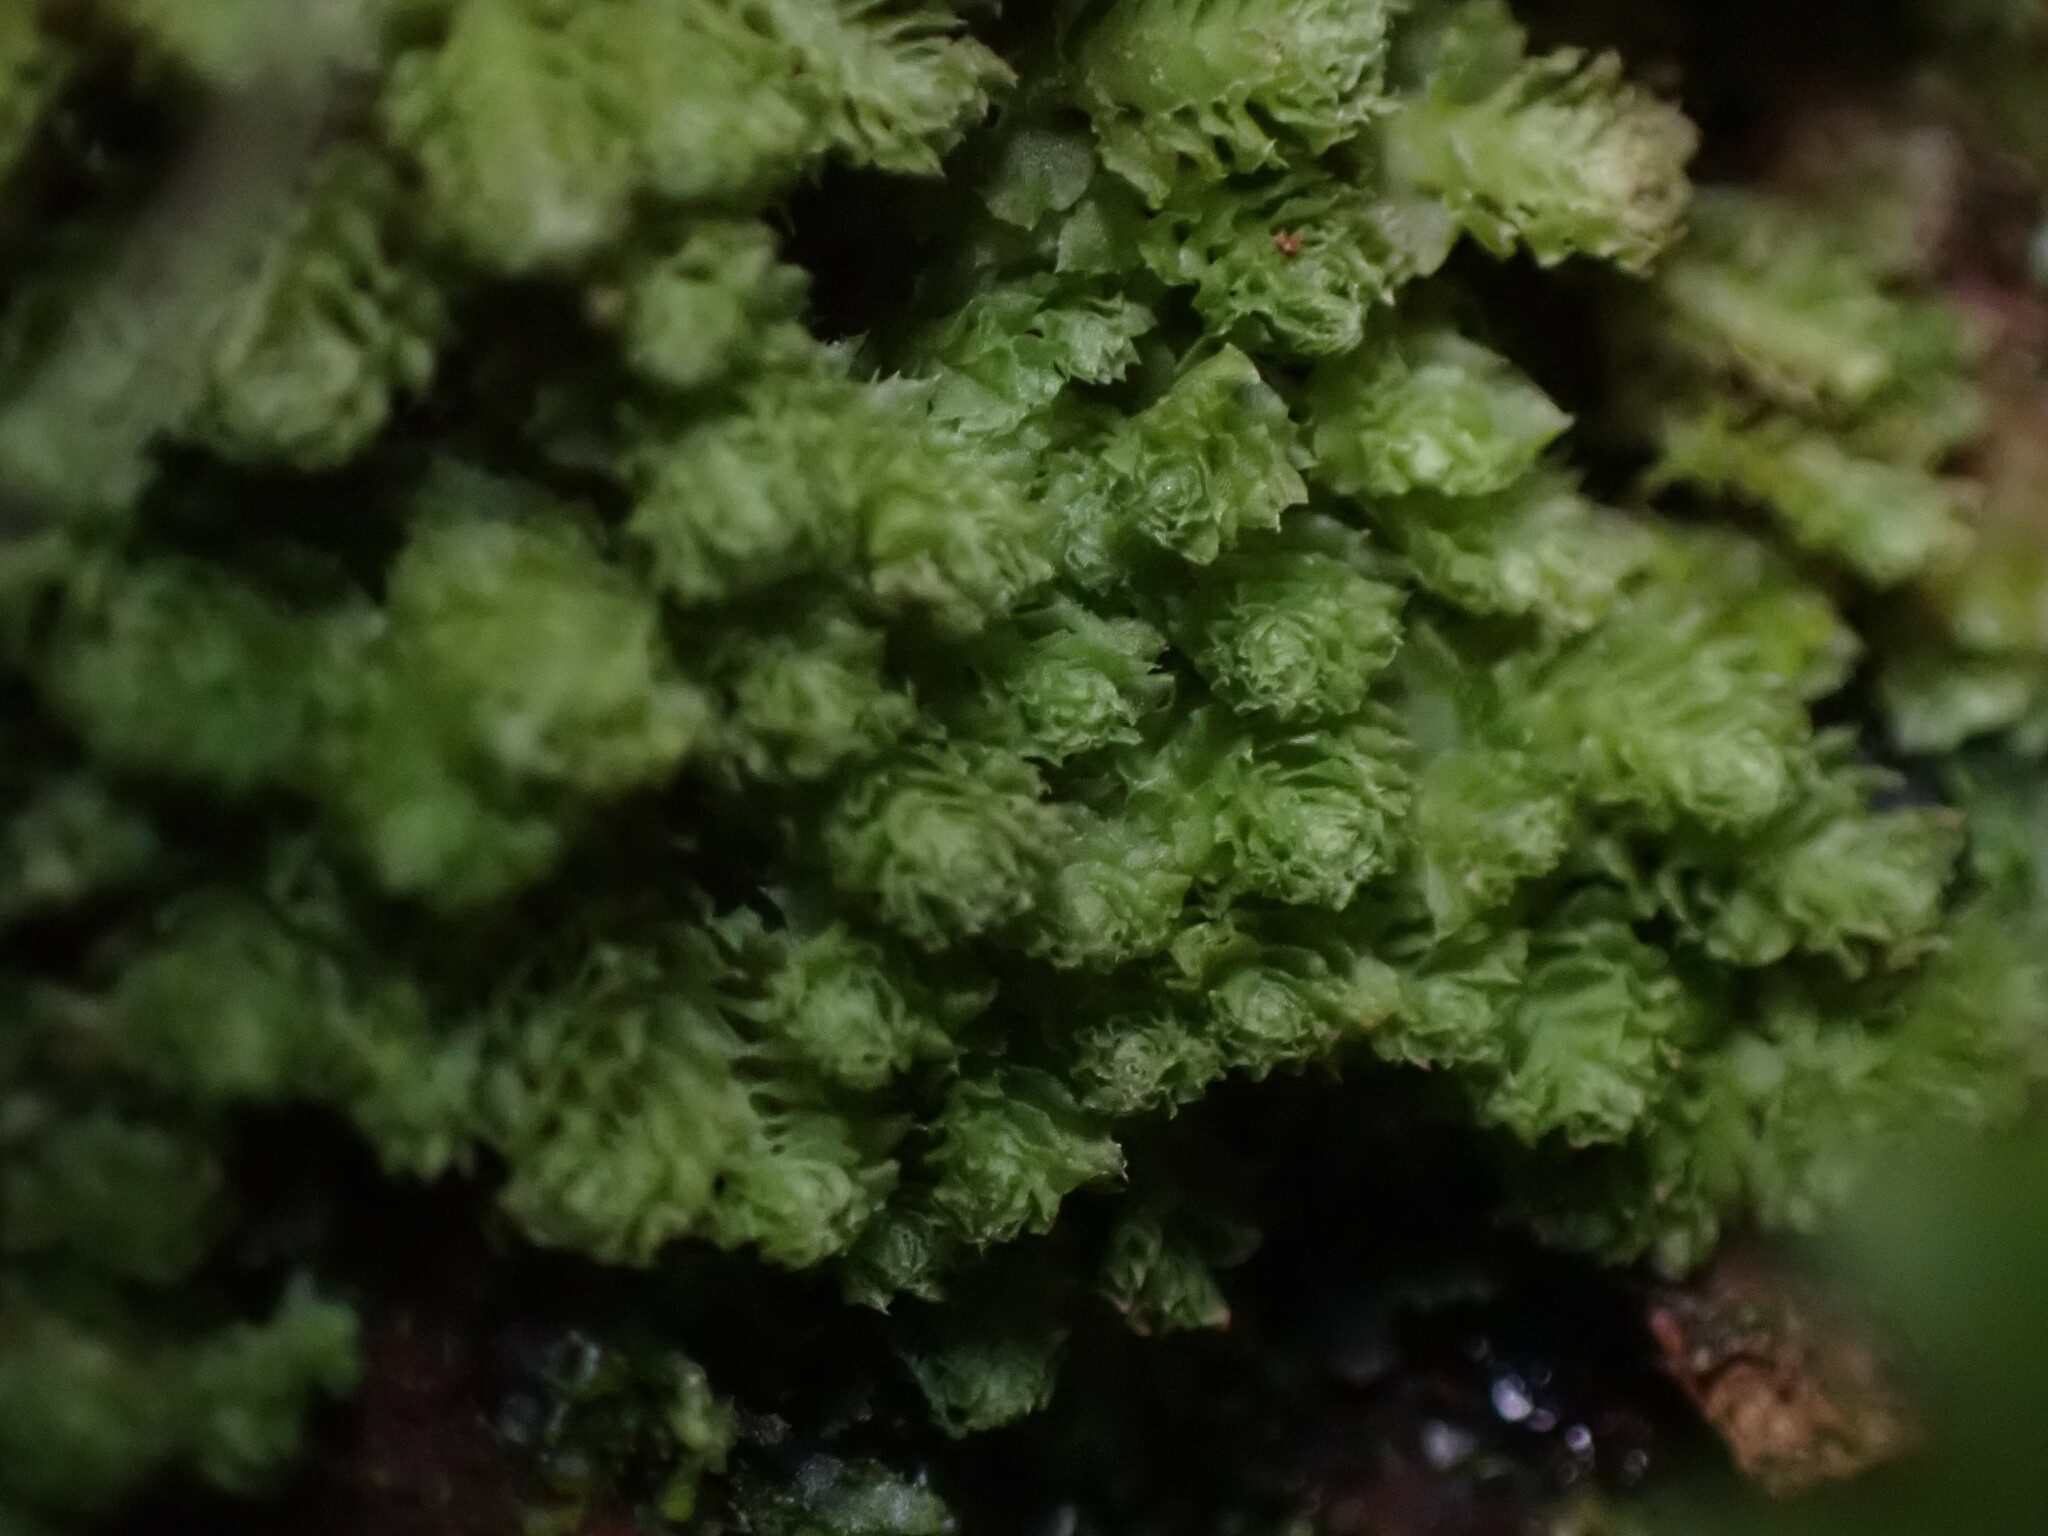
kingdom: Plantae
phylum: Marchantiophyta
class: Jungermanniopsida
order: Jungermanniales
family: Scapaniaceae
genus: Schistochilopsis
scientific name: Schistochilopsis incisa
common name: Jagged notchwort
